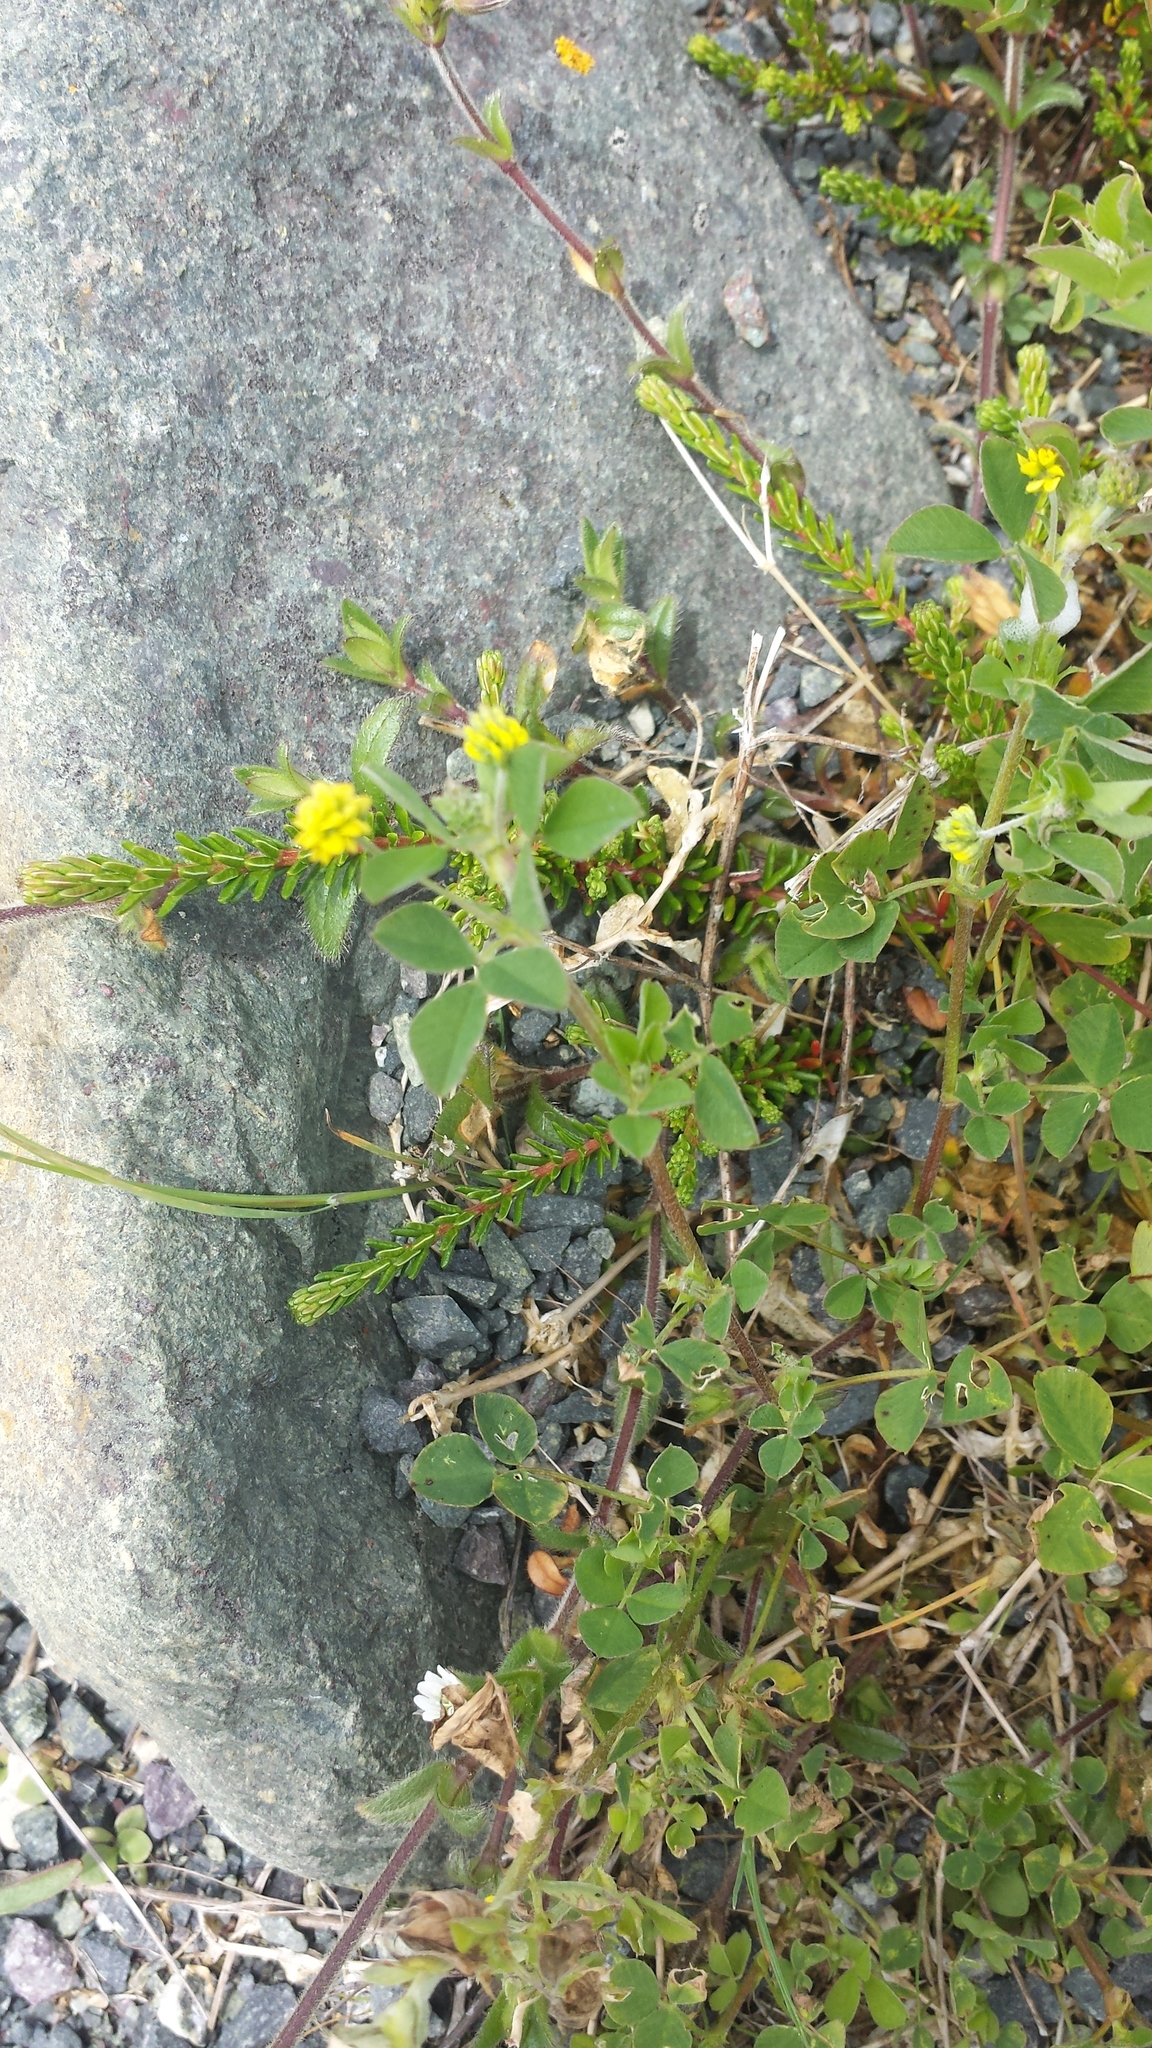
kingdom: Plantae
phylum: Tracheophyta
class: Magnoliopsida
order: Fabales
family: Fabaceae
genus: Medicago
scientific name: Medicago lupulina
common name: Black medick
